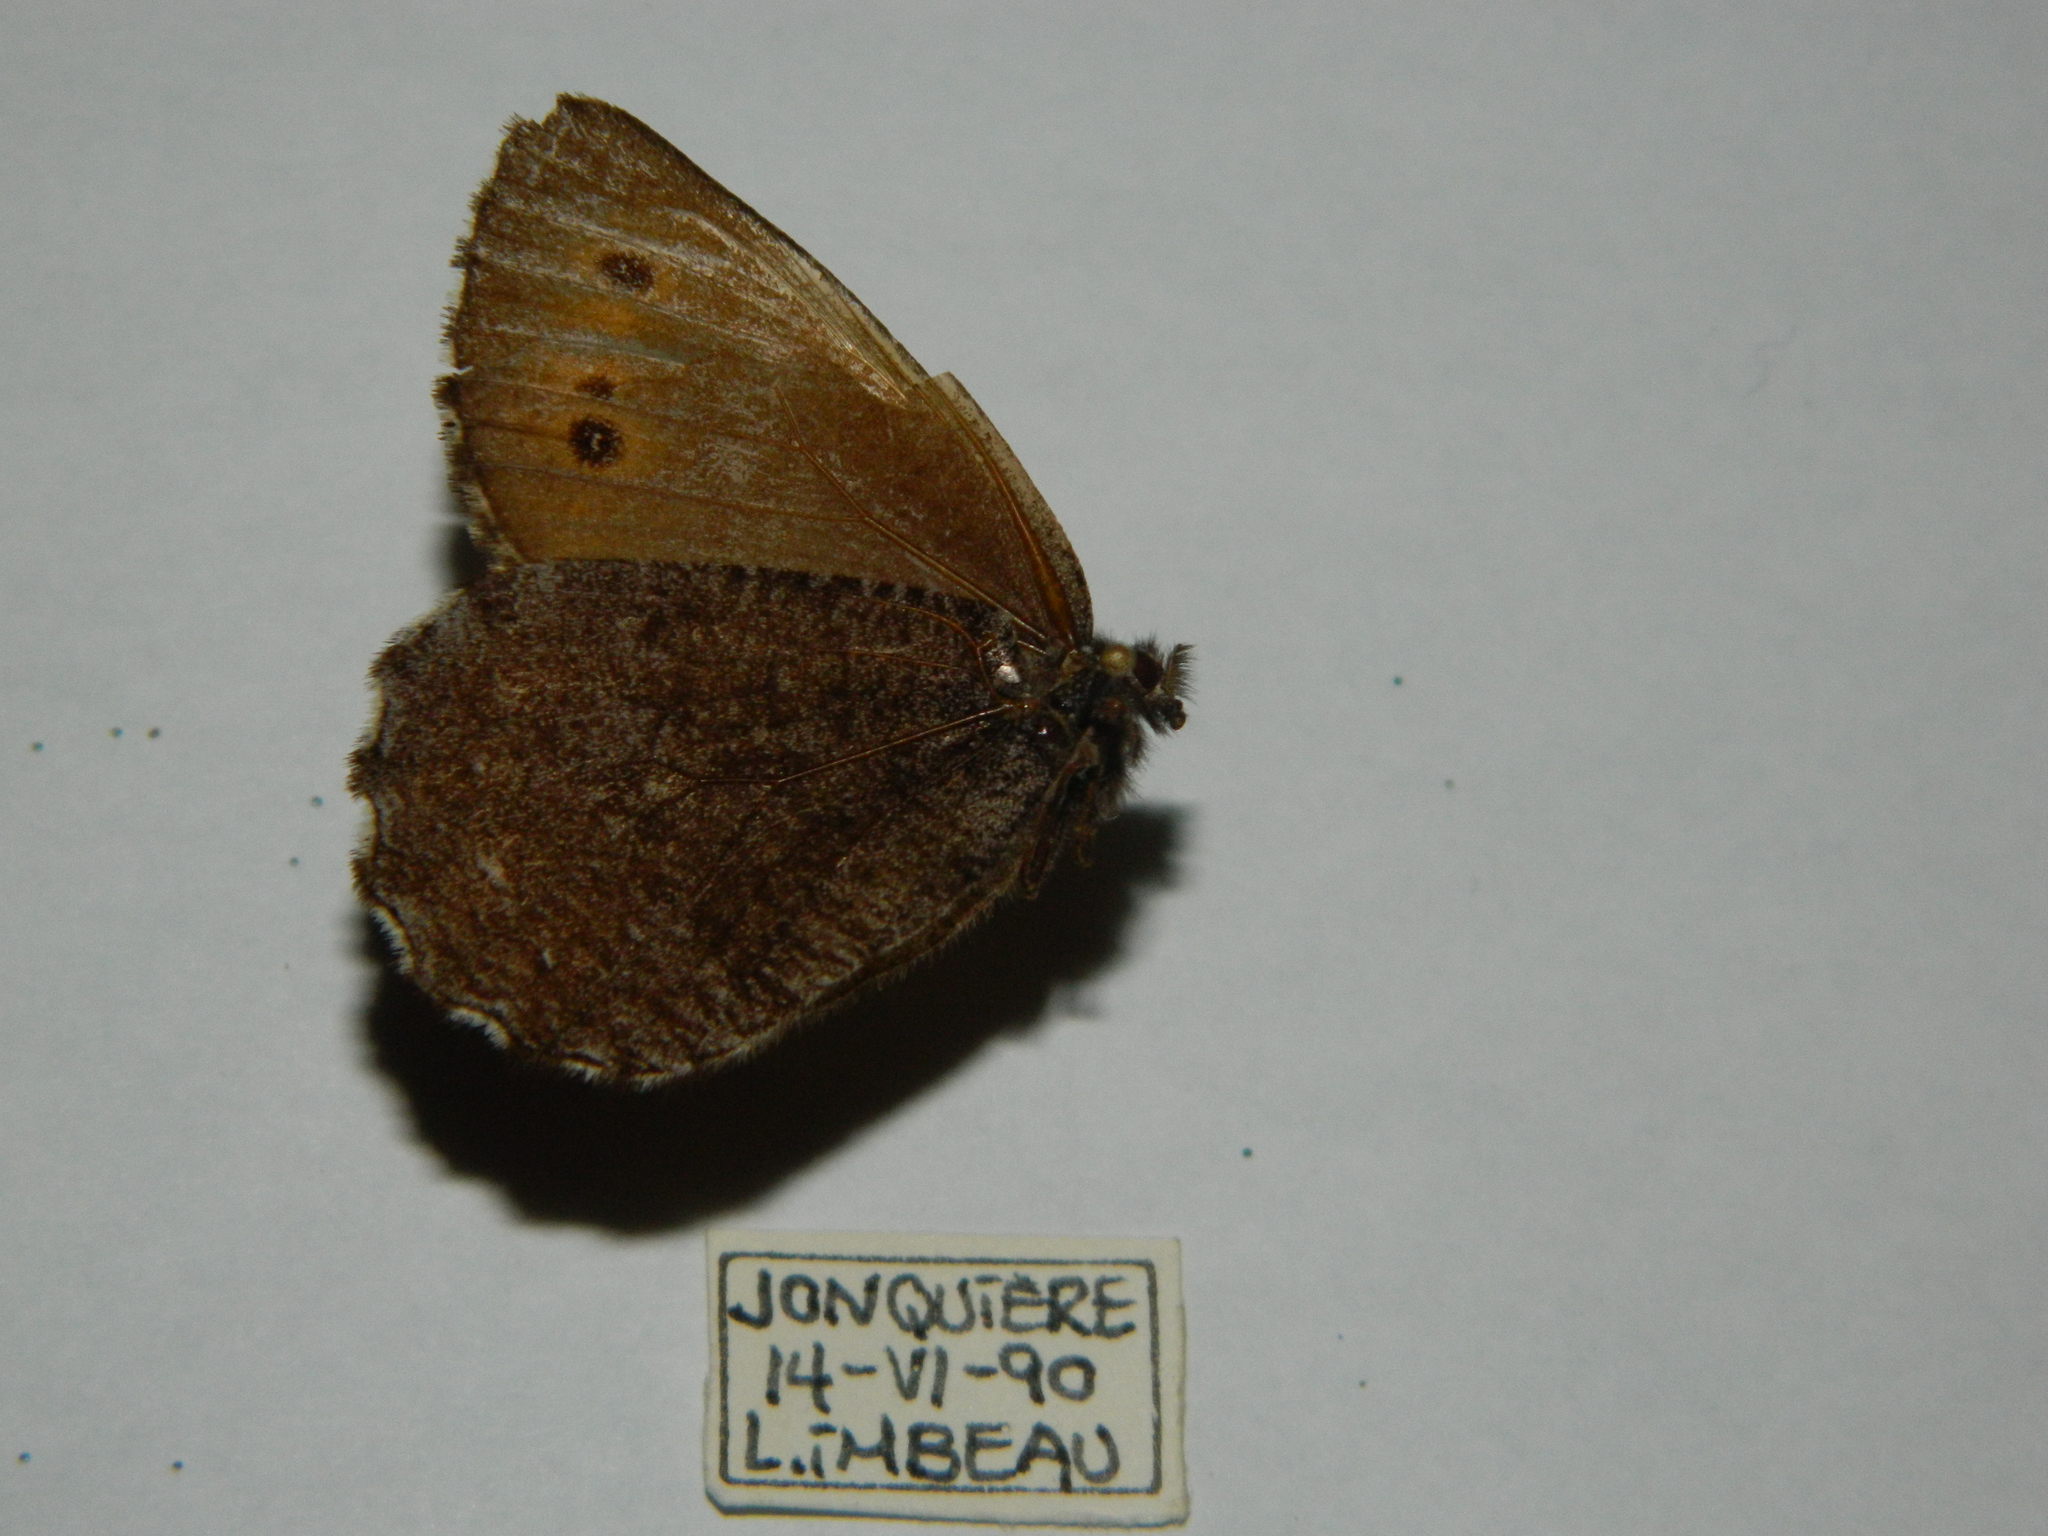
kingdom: Animalia
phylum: Arthropoda
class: Insecta
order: Lepidoptera
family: Nymphalidae
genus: Oeneis
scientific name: Oeneis jutta
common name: Baltic grayling
